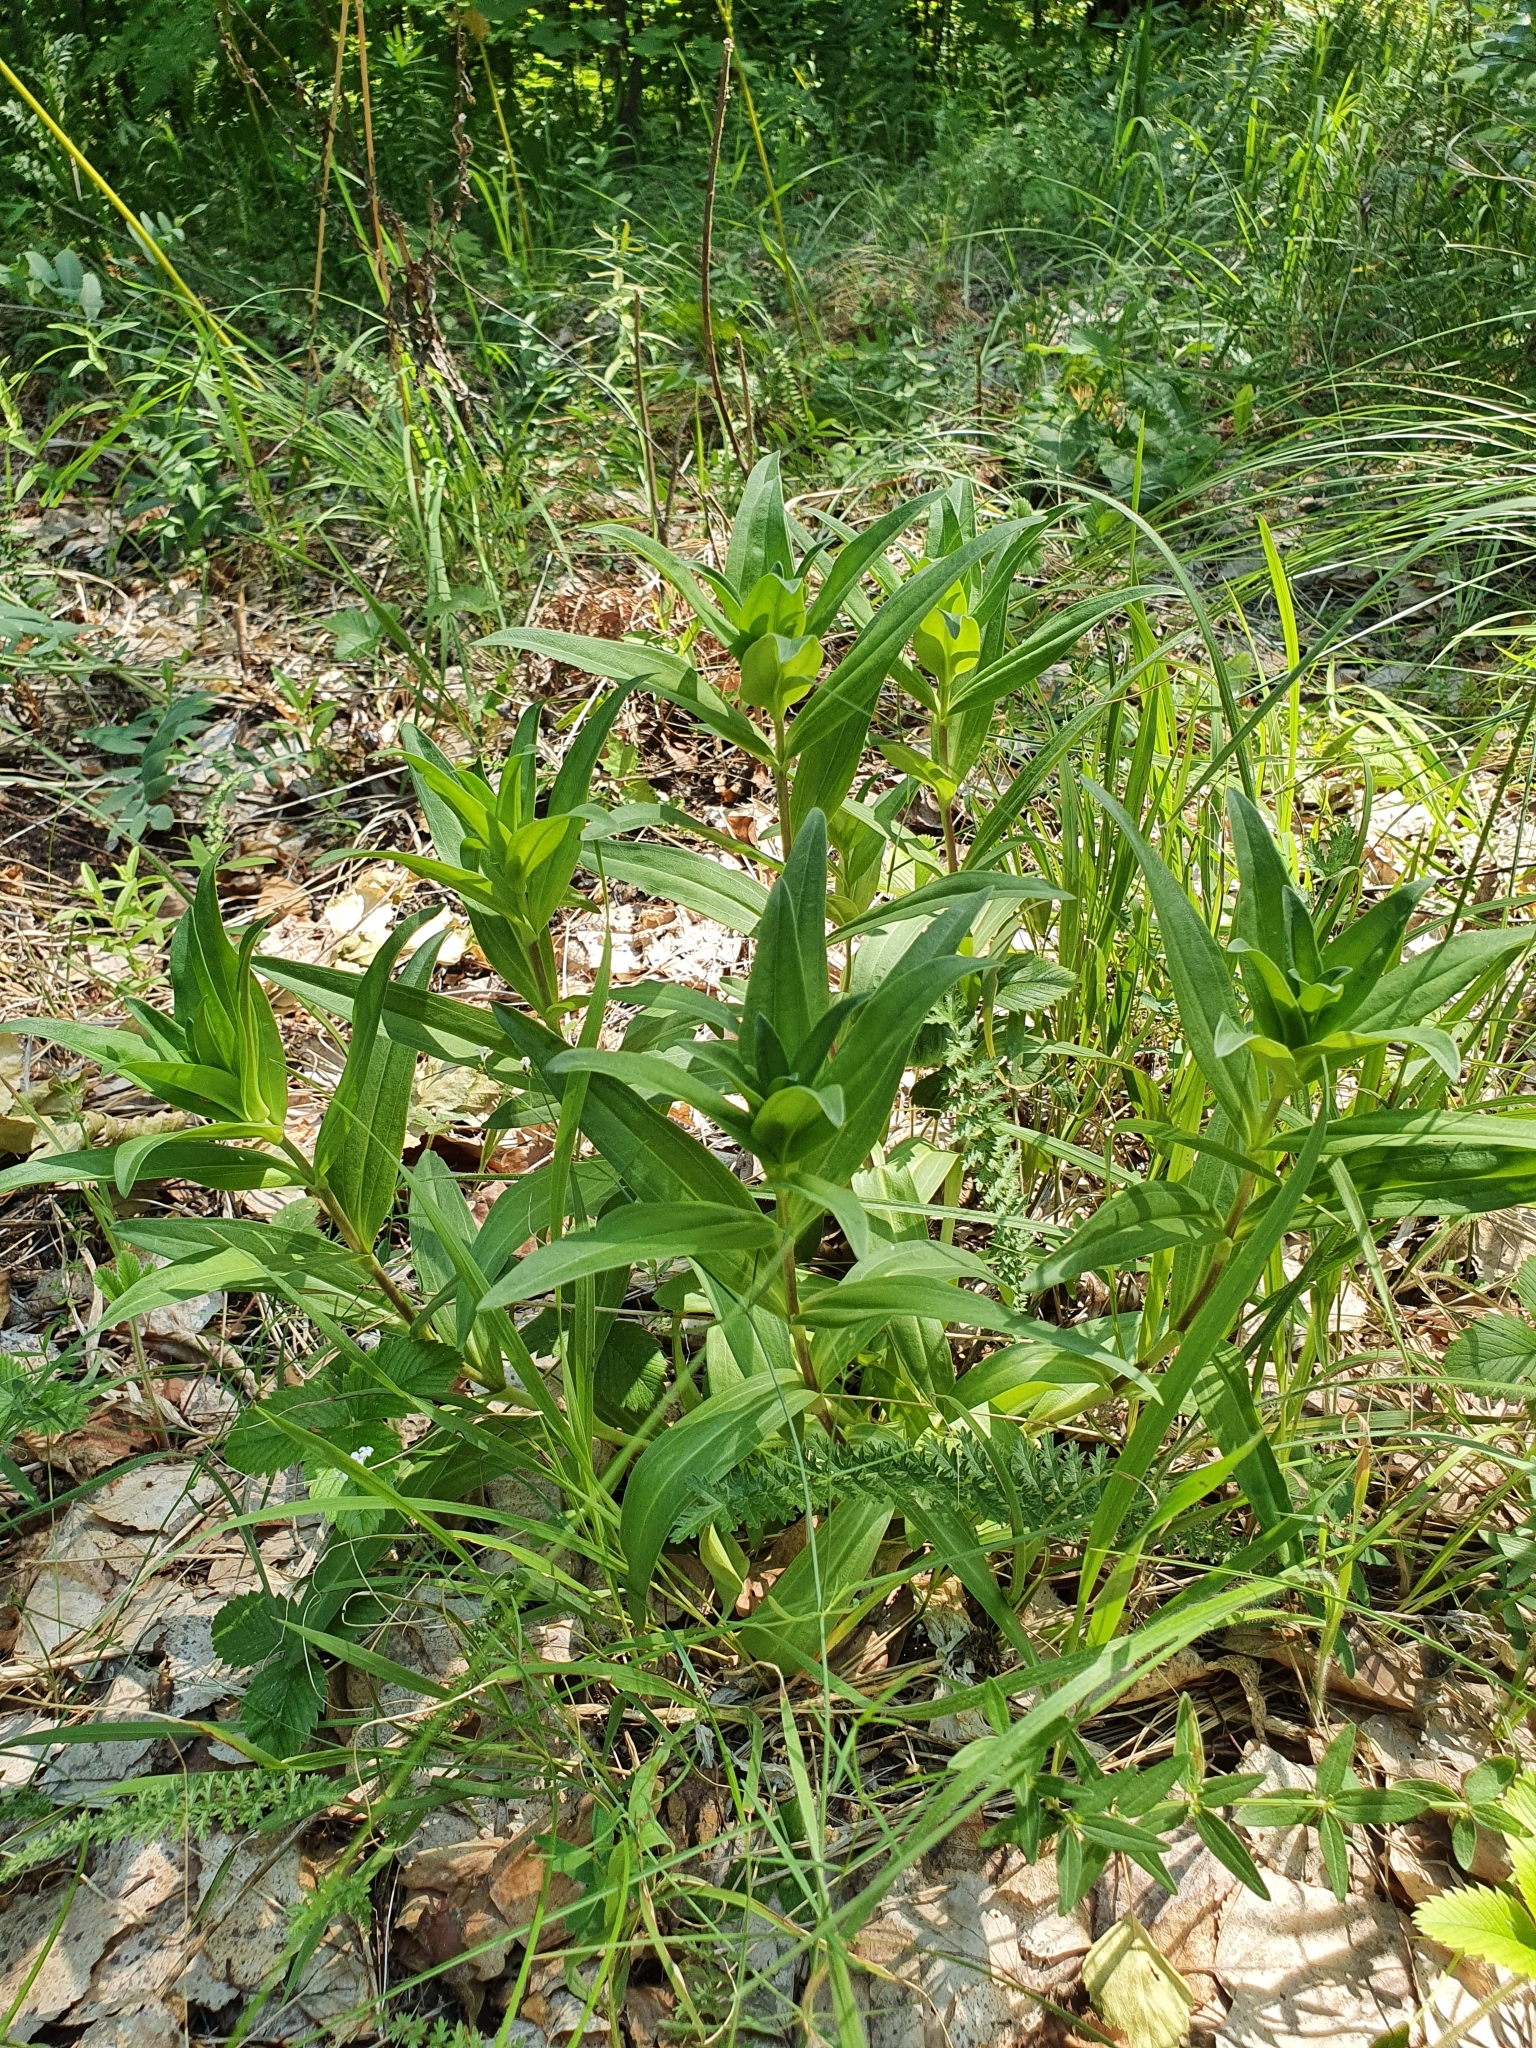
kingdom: Plantae
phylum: Tracheophyta
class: Magnoliopsida
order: Gentianales
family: Gentianaceae
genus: Gentiana
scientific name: Gentiana cruciata
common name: Cross gentian
